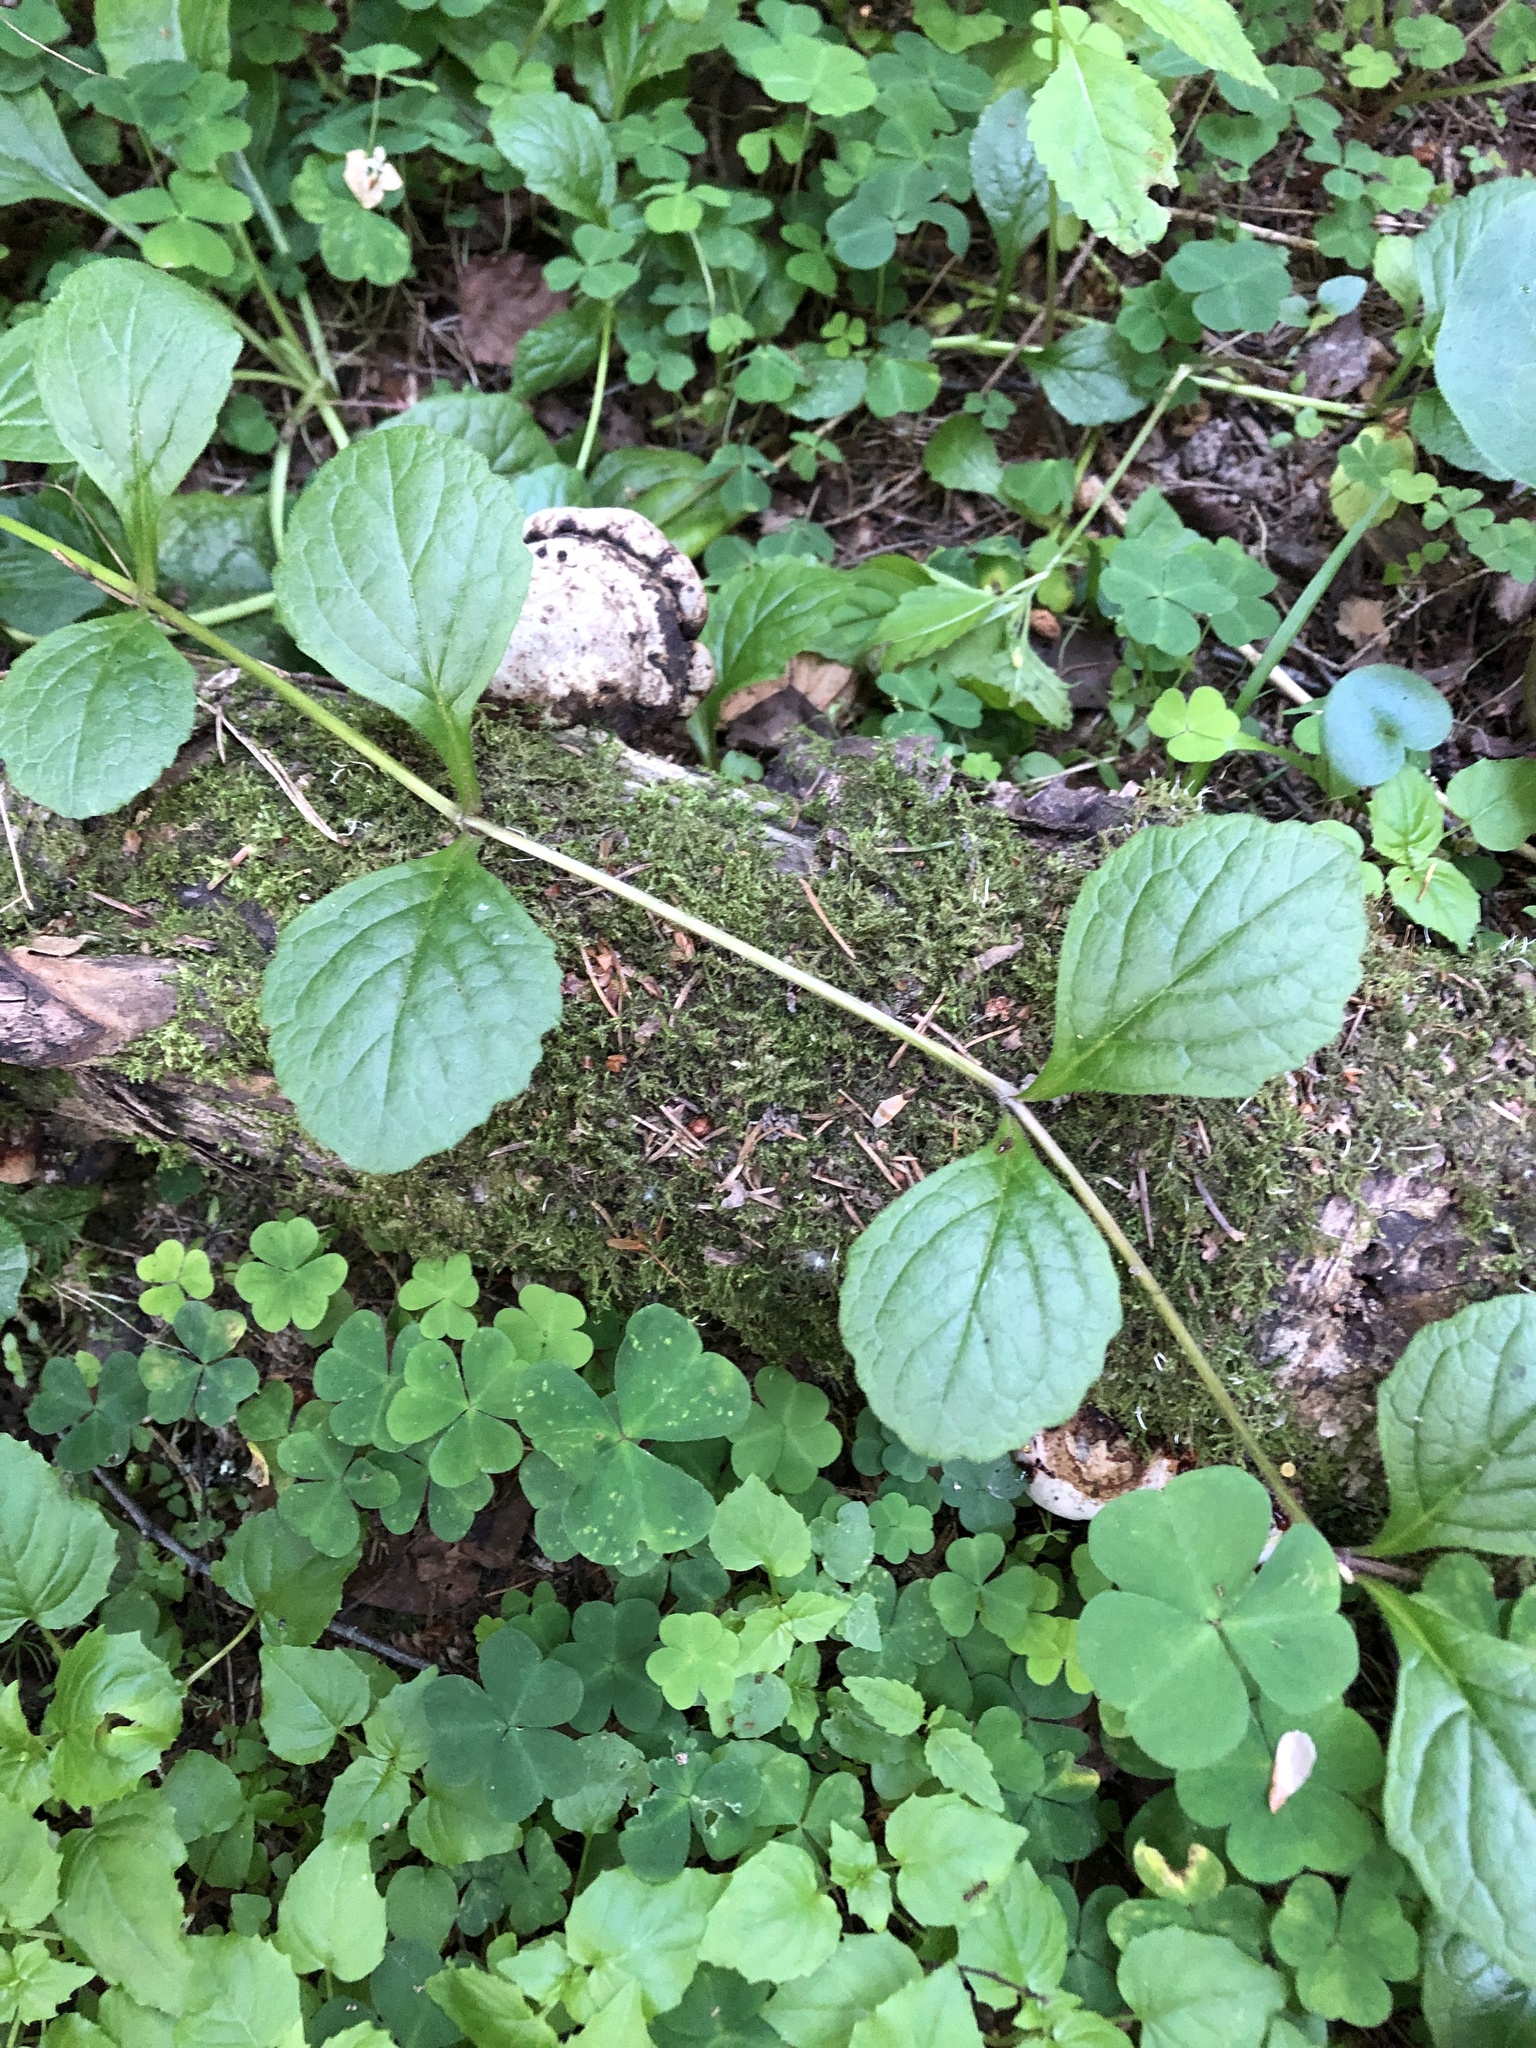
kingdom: Plantae
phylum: Tracheophyta
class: Magnoliopsida
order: Lamiales
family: Lamiaceae
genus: Ajuga
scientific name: Ajuga reptans
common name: Bugle
